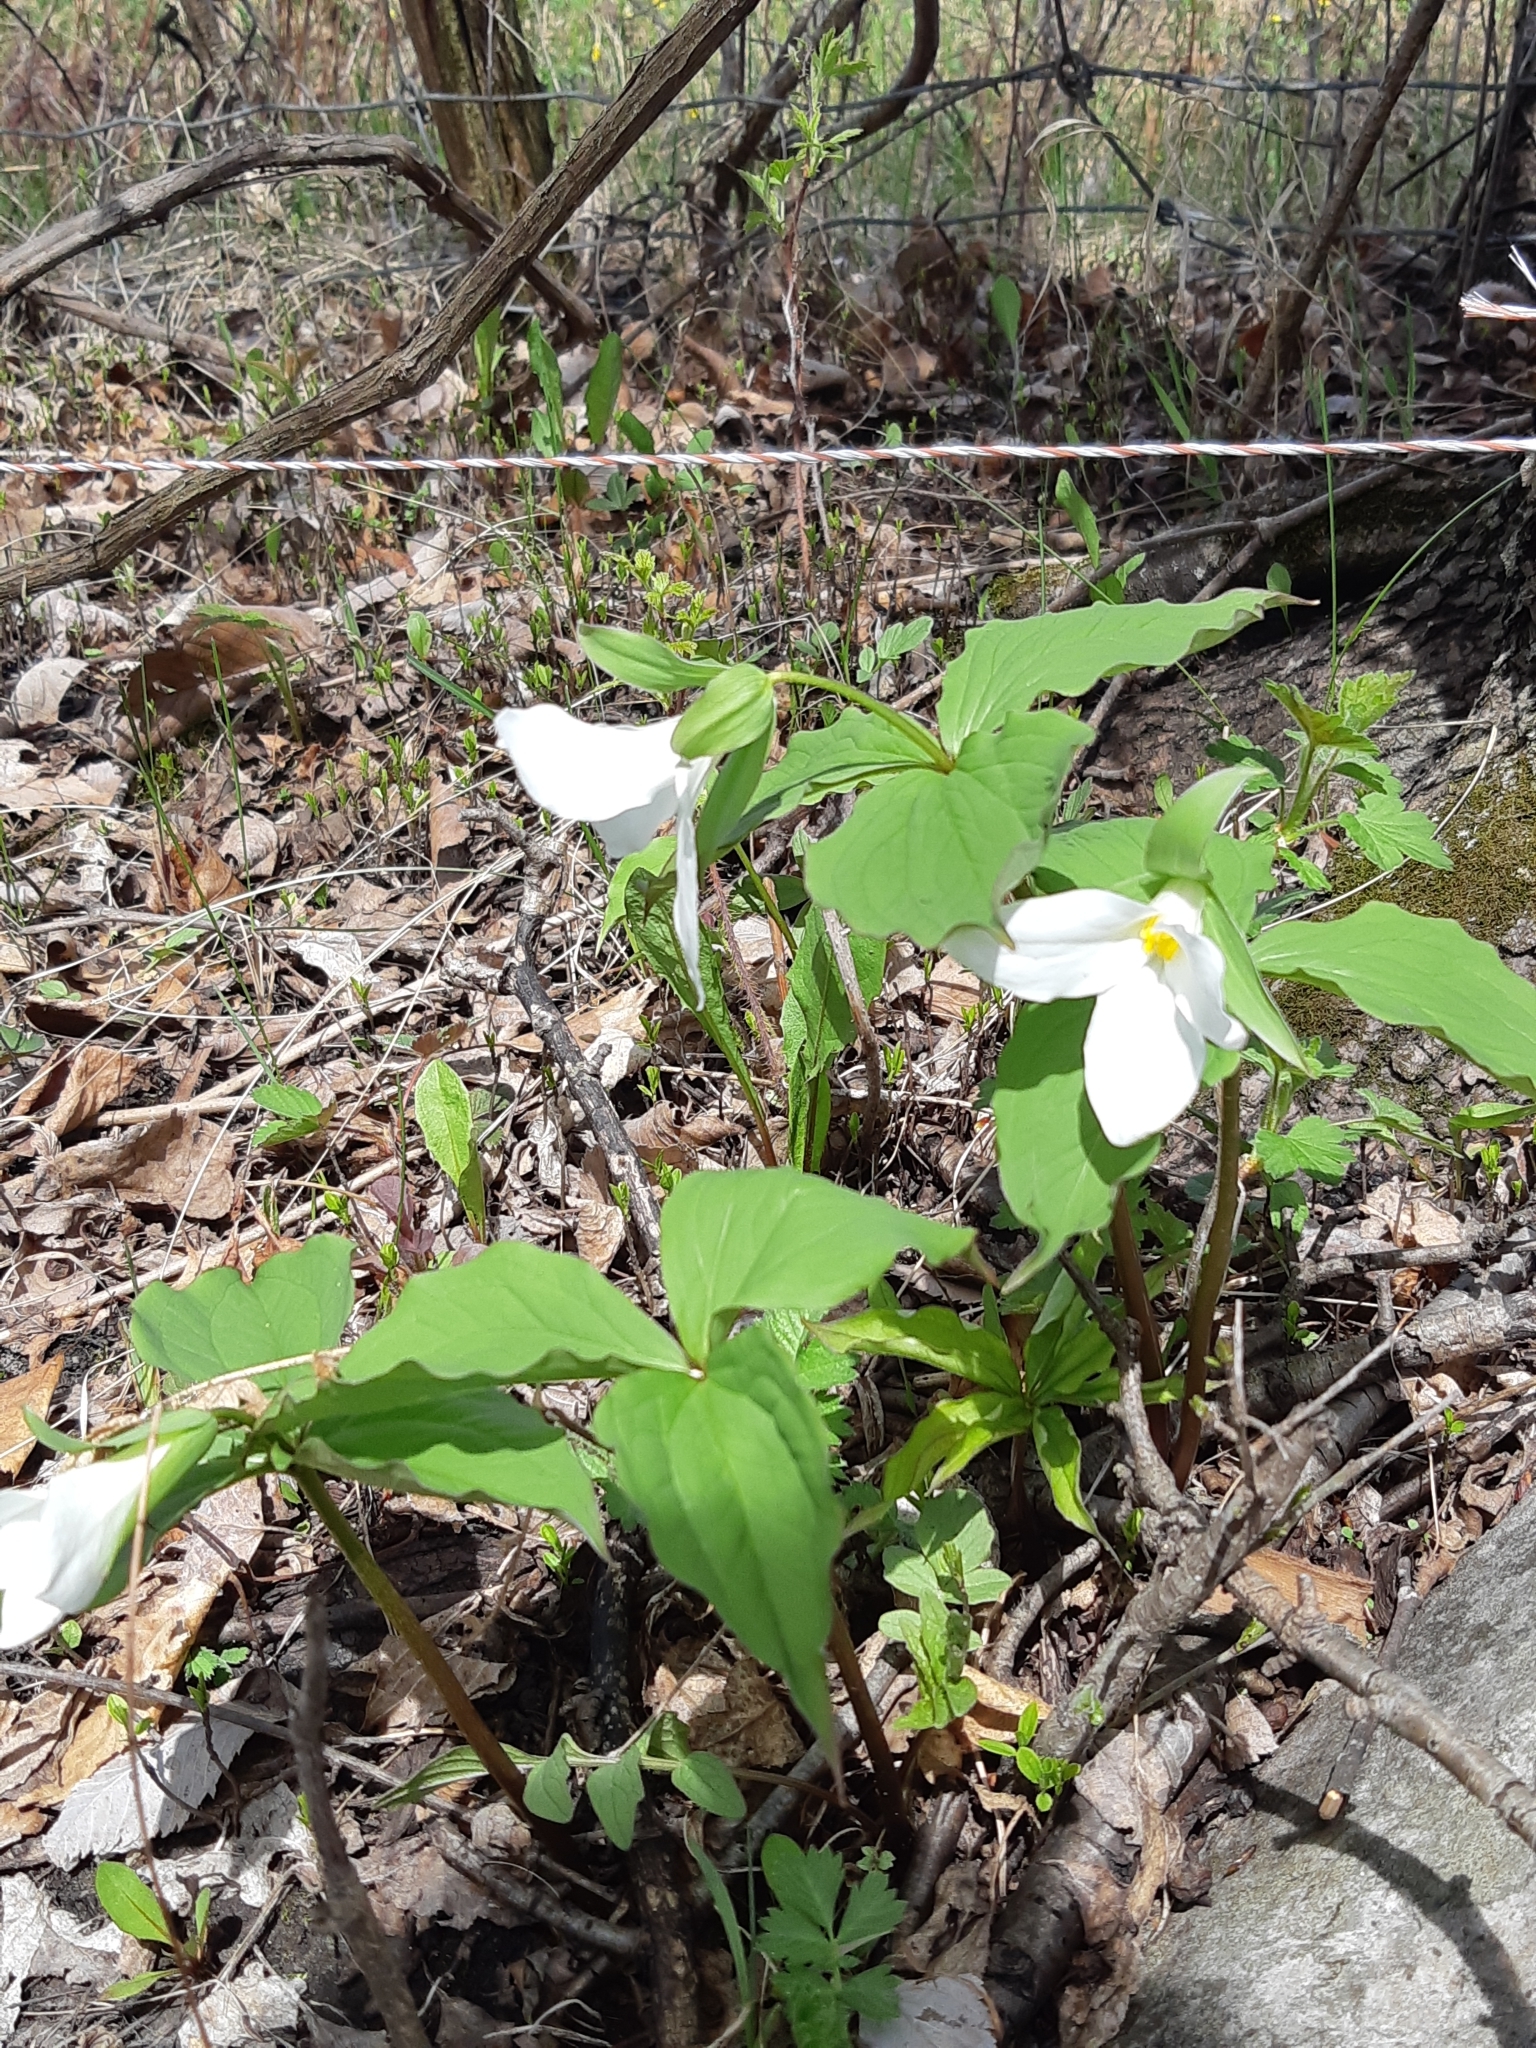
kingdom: Plantae
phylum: Tracheophyta
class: Liliopsida
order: Liliales
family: Melanthiaceae
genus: Trillium
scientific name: Trillium grandiflorum
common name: Great white trillium
